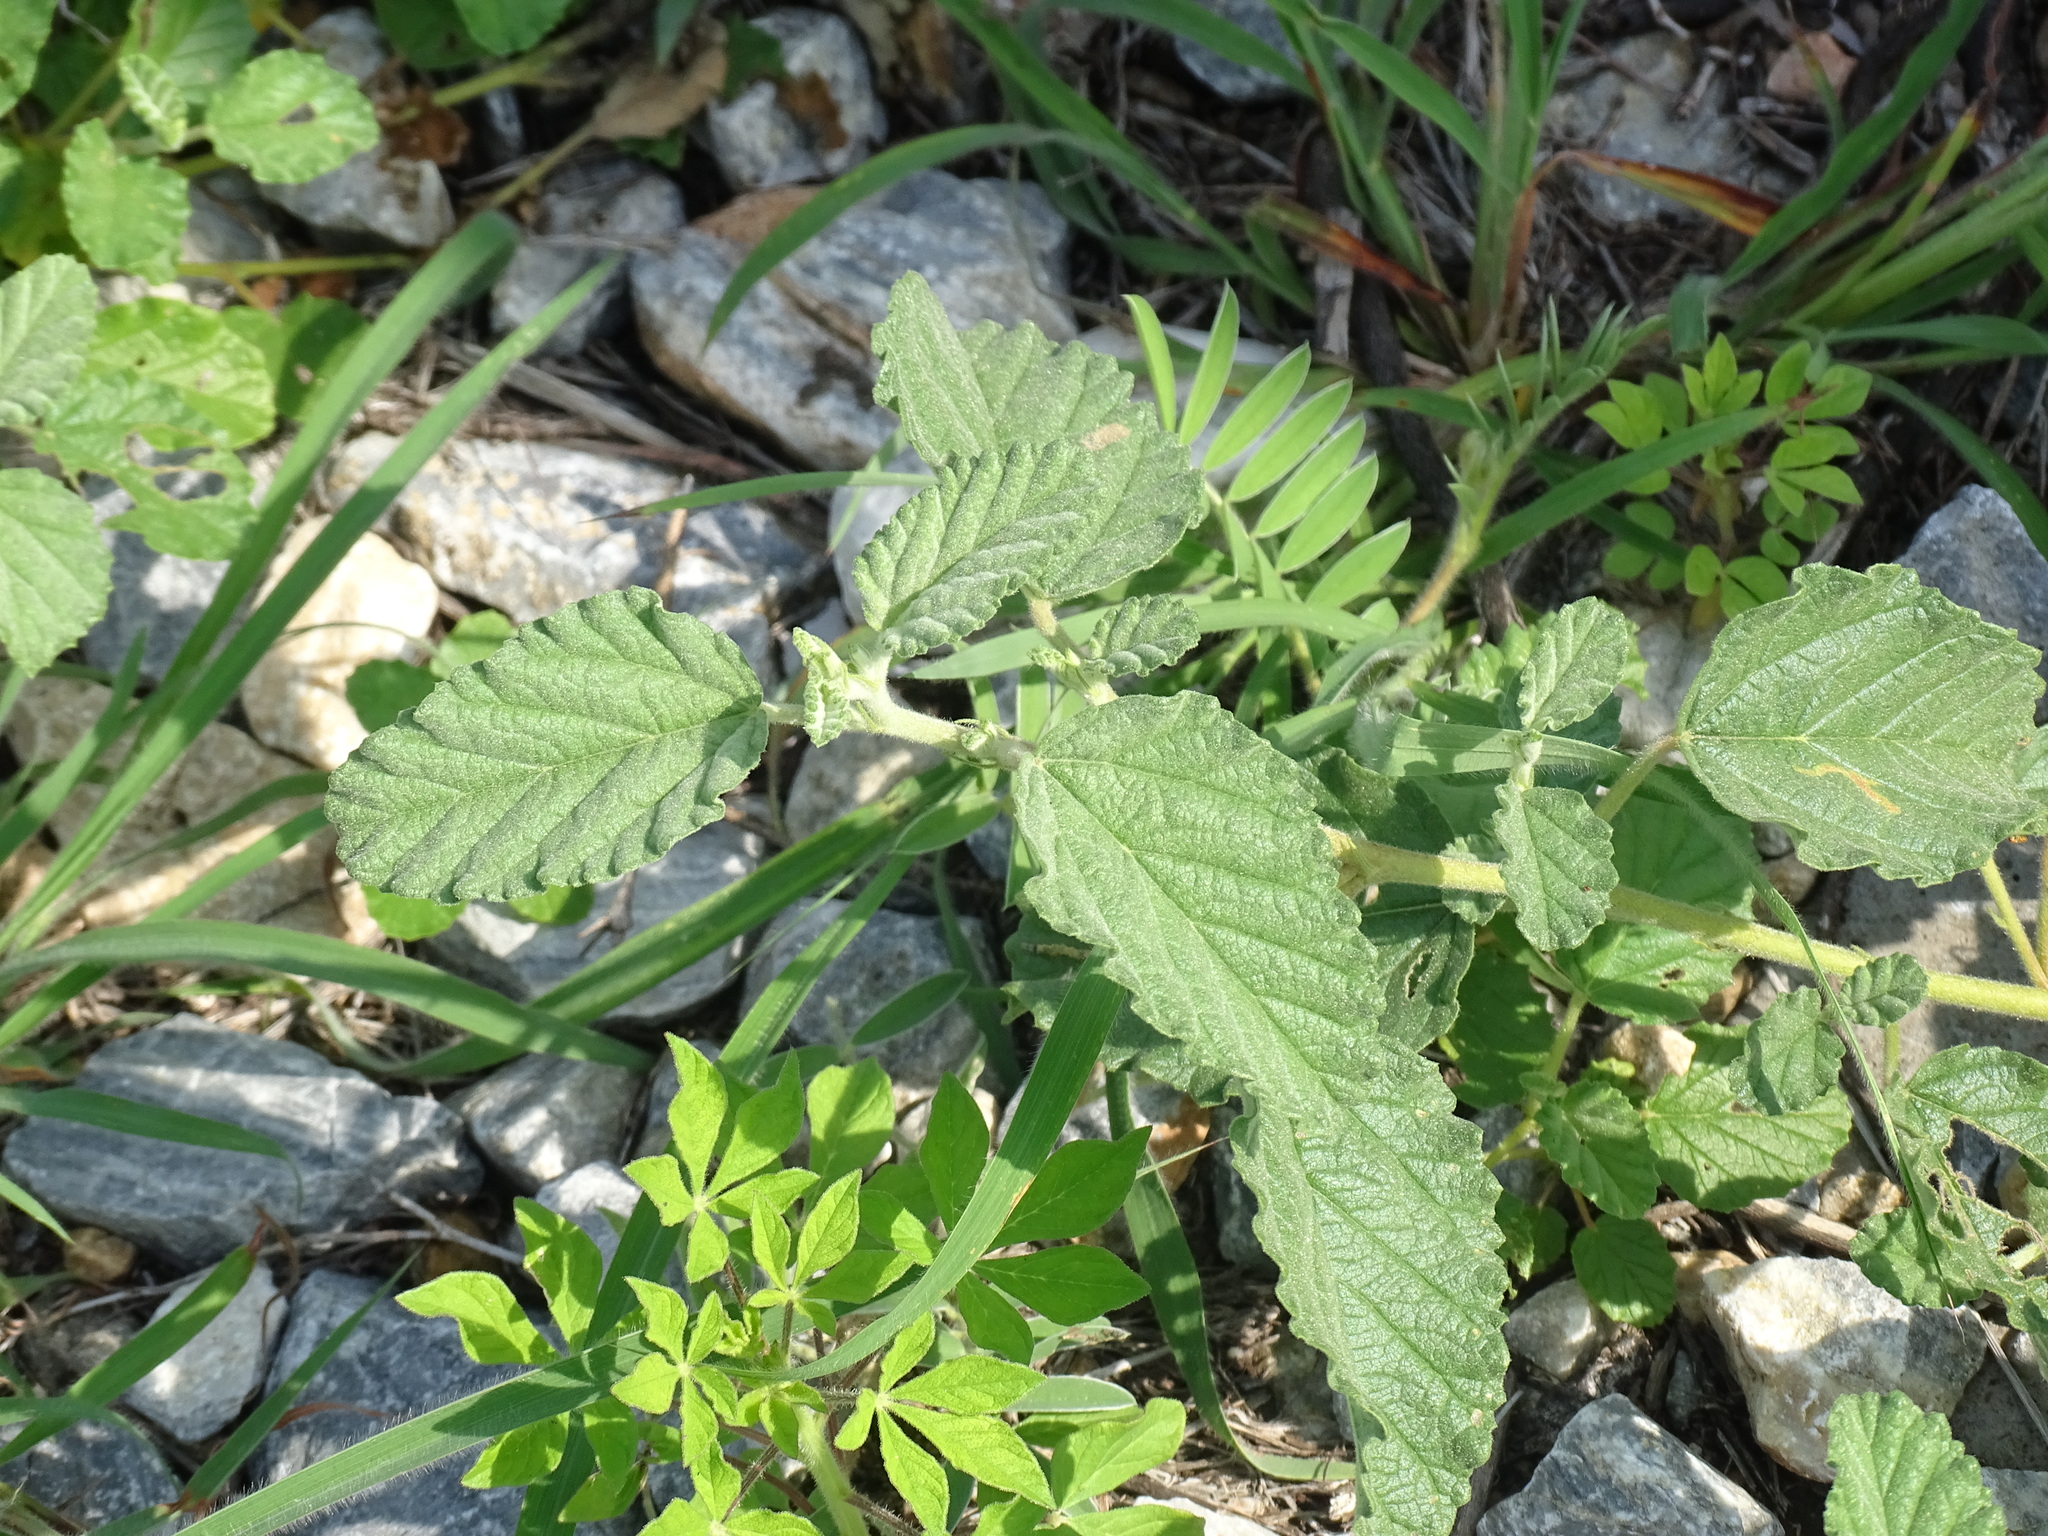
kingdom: Plantae
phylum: Tracheophyta
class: Magnoliopsida
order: Malvales
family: Malvaceae
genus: Waltheria
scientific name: Waltheria indica
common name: Leather-coat
